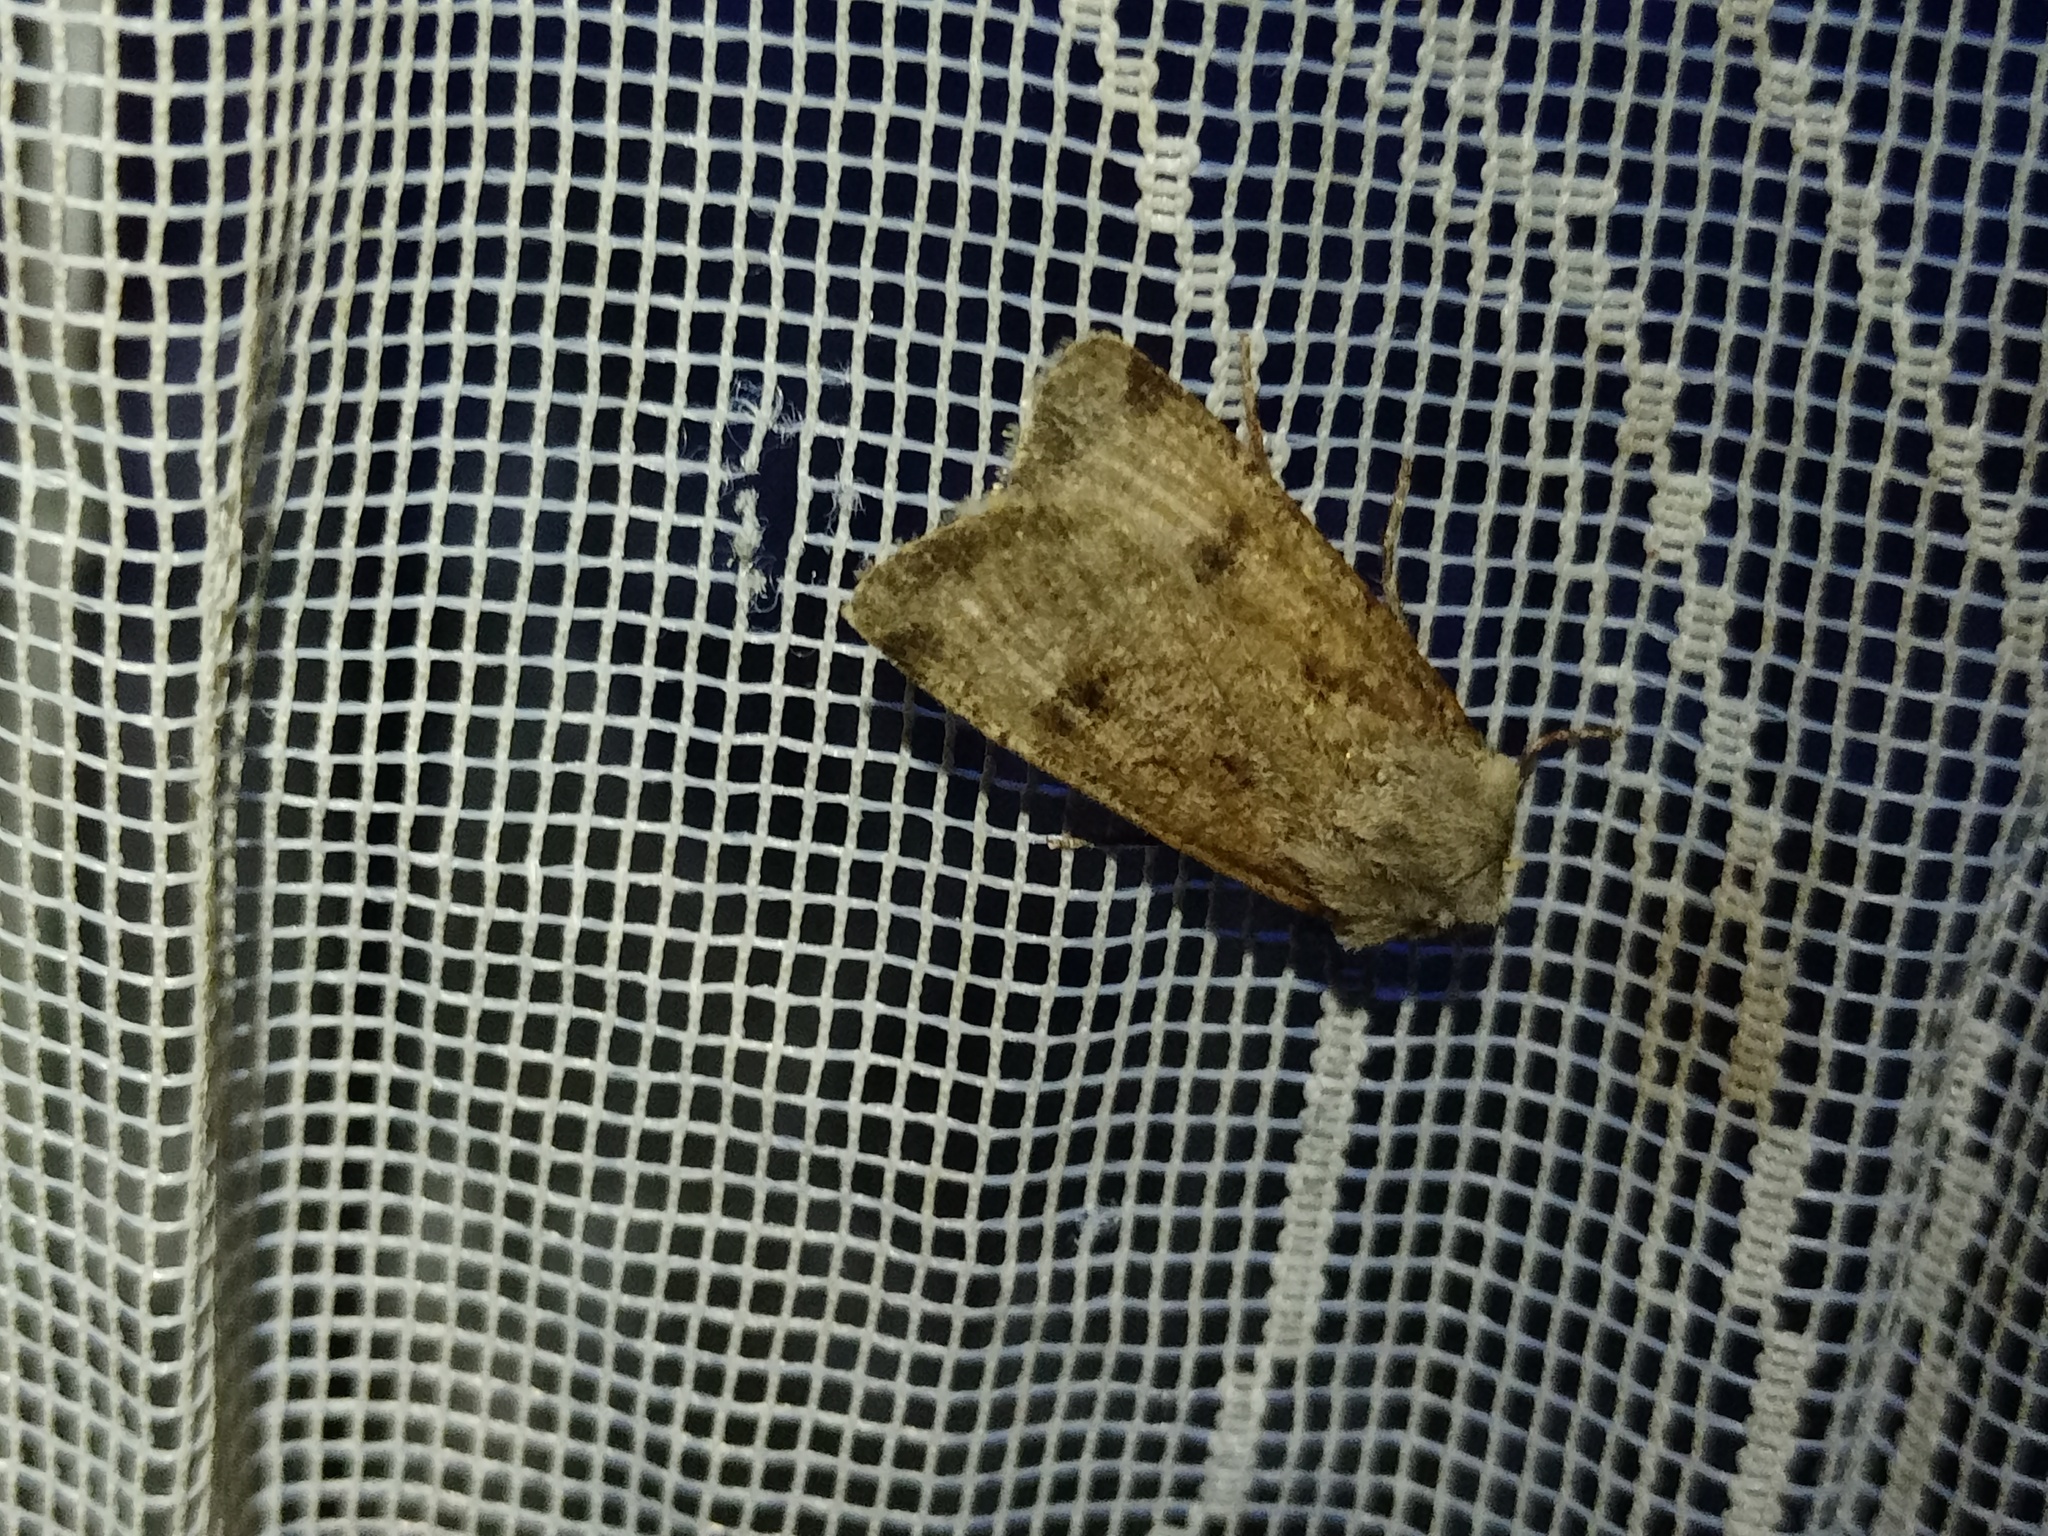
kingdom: Animalia
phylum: Arthropoda
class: Insecta
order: Lepidoptera
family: Noctuidae
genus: Agrotis
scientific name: Agrotis trux
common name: Crescent dart
